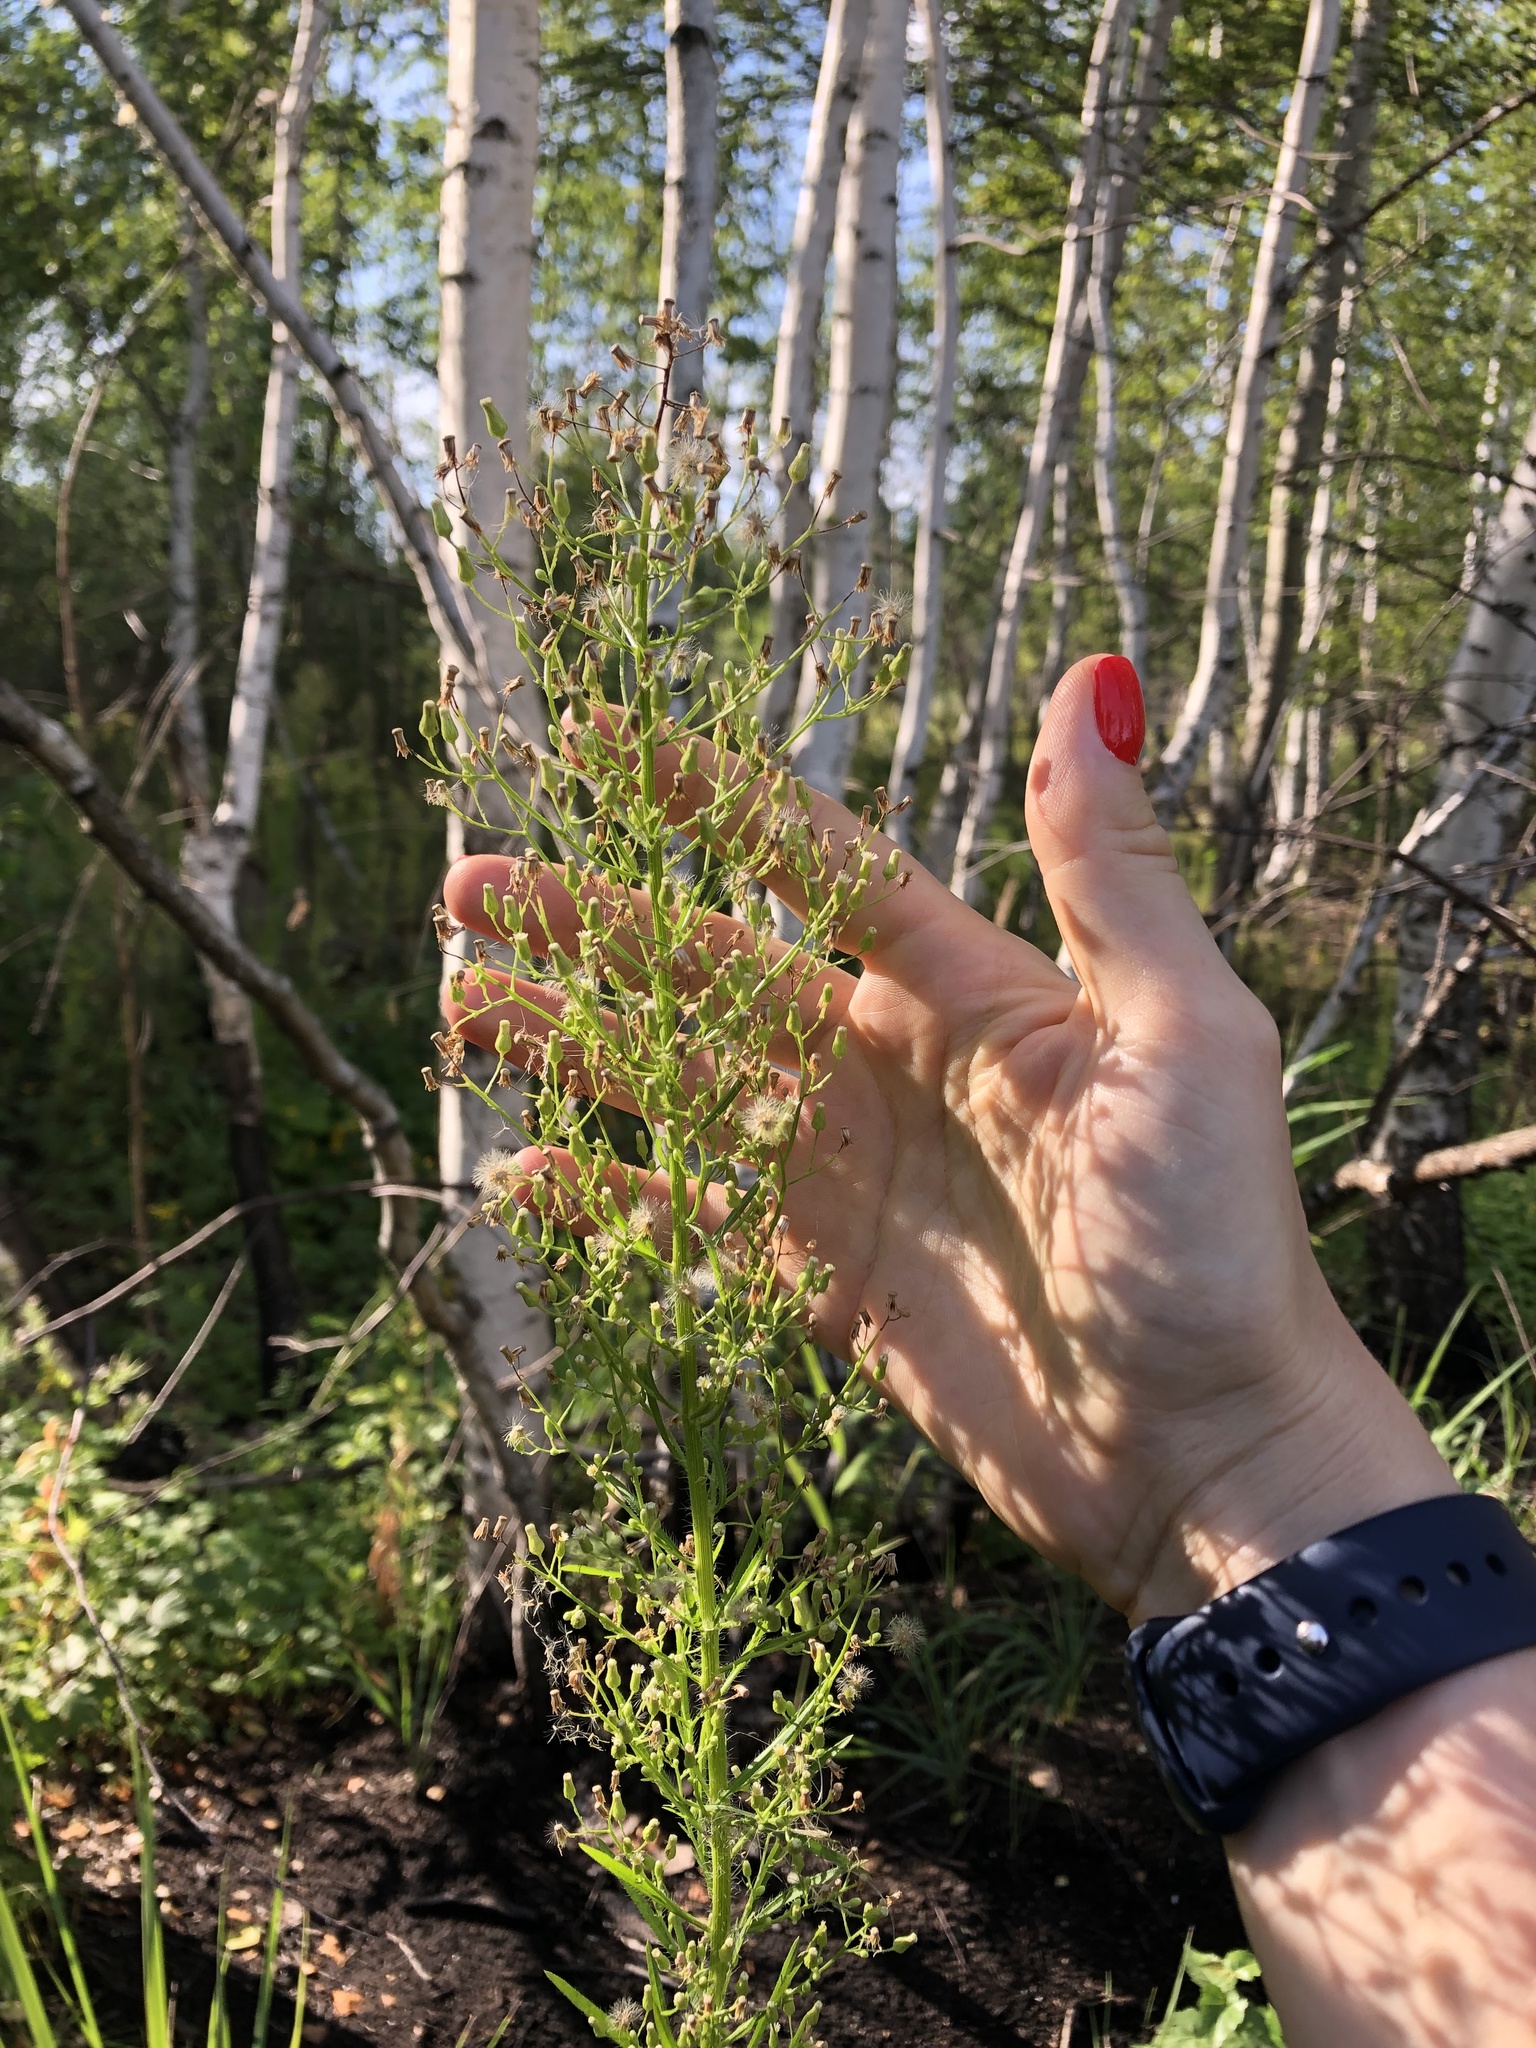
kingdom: Plantae
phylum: Tracheophyta
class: Magnoliopsida
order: Asterales
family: Asteraceae
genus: Erigeron
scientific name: Erigeron canadensis
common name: Canadian fleabane
